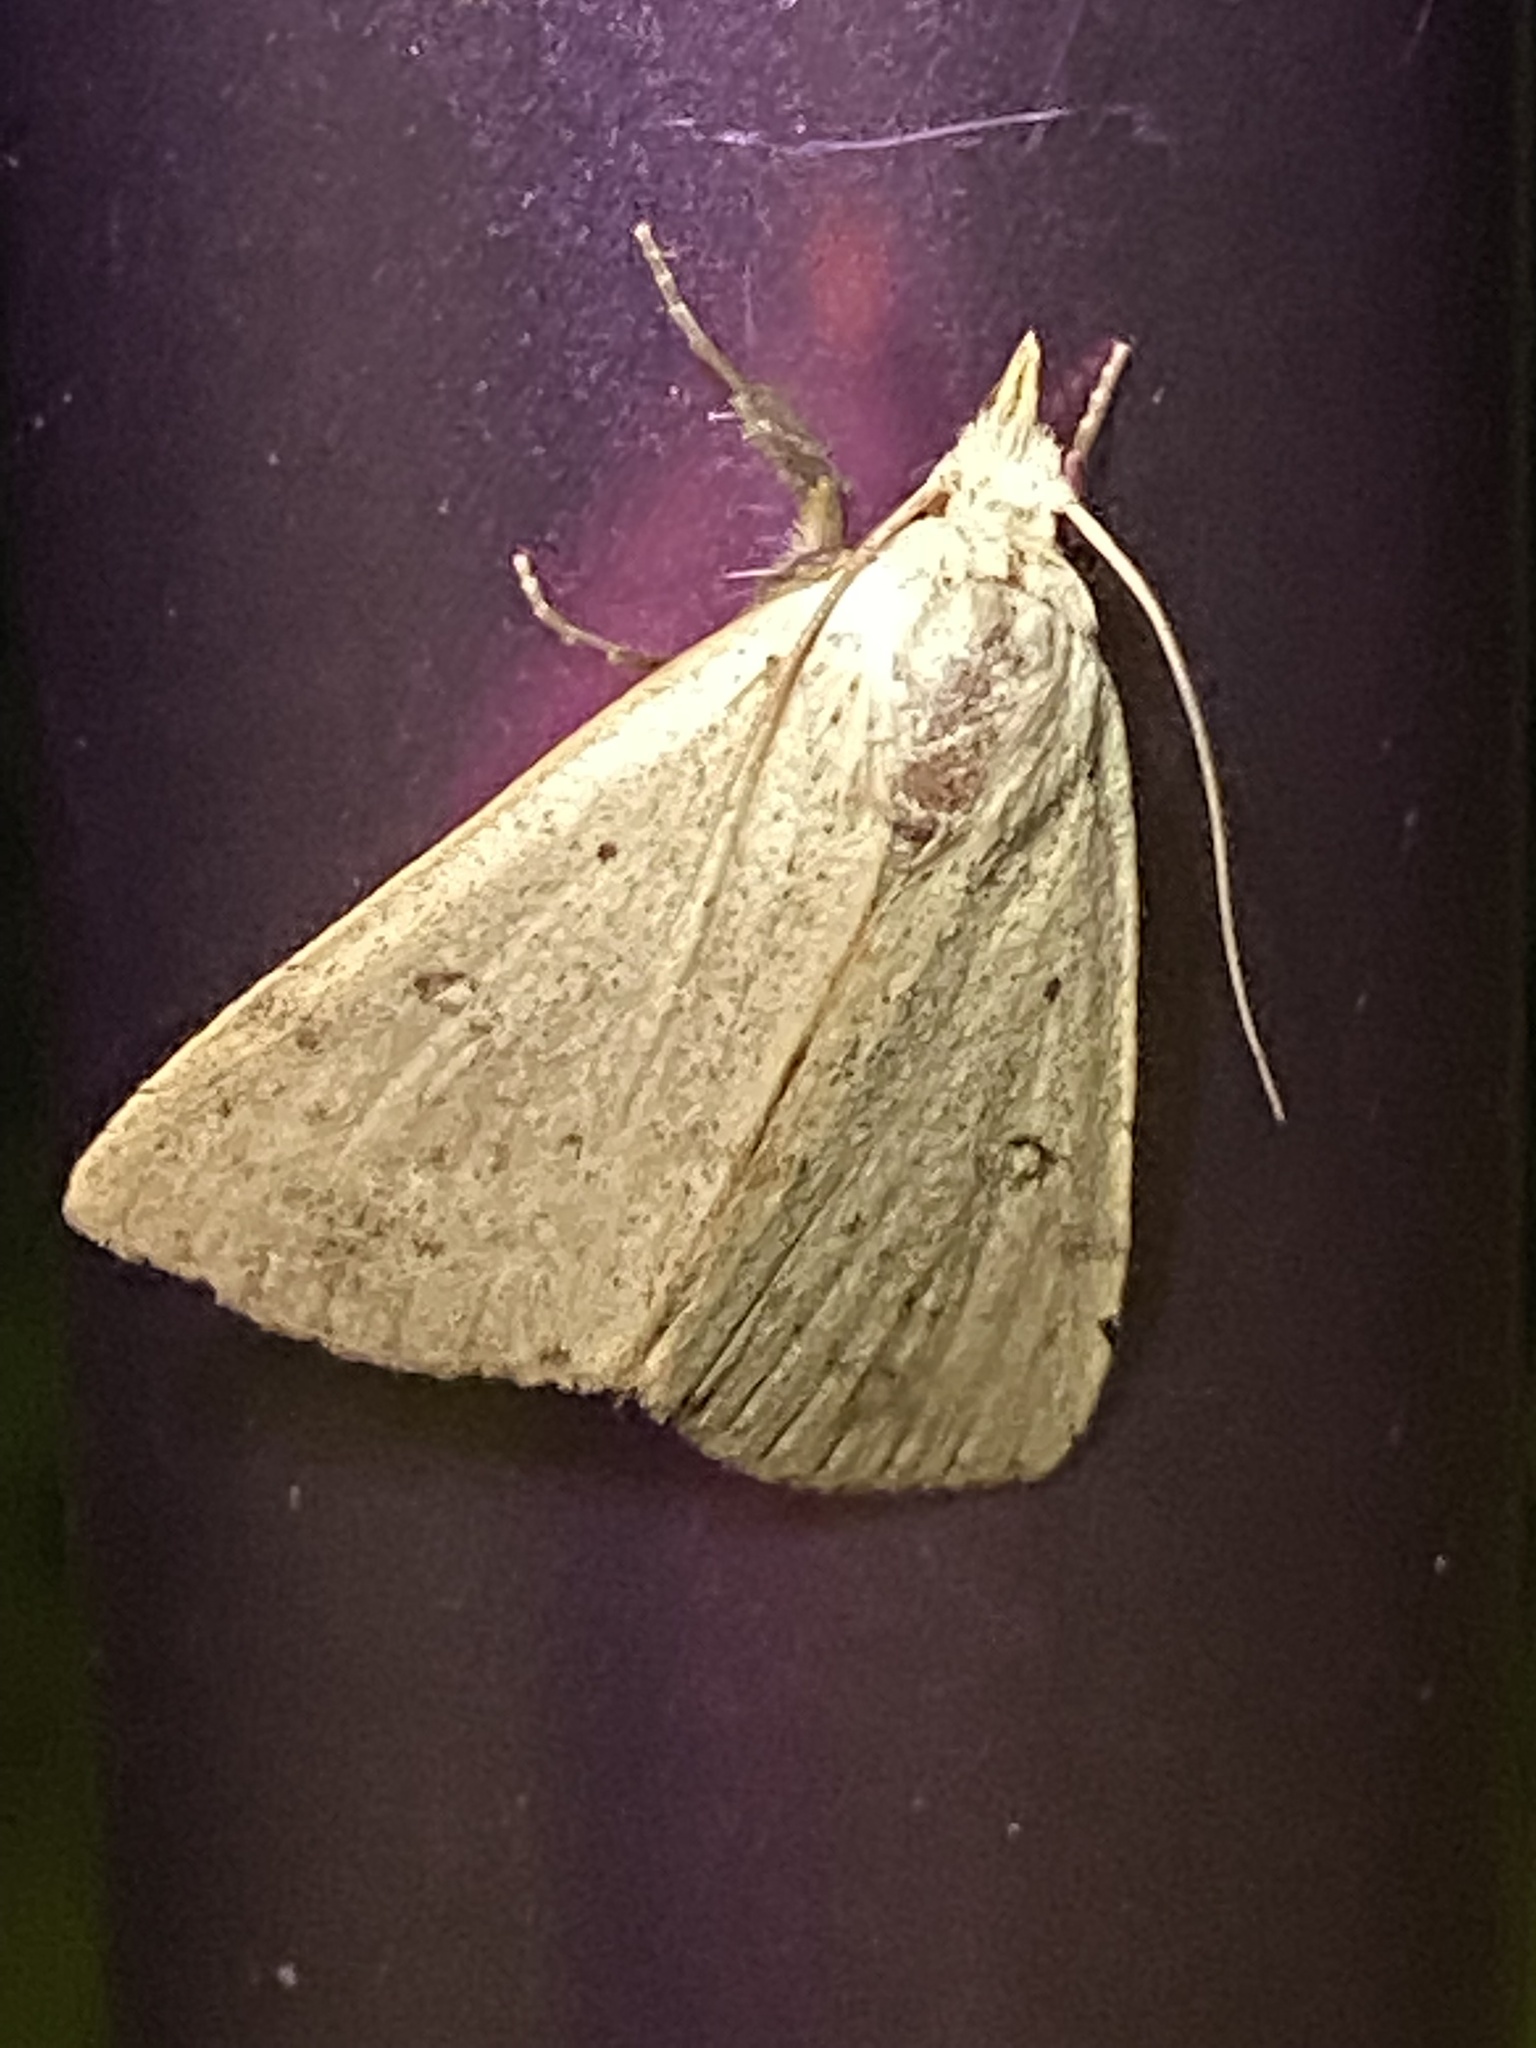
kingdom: Animalia
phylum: Arthropoda
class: Insecta
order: Lepidoptera
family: Erebidae
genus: Scolecocampa
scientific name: Scolecocampa liburna
